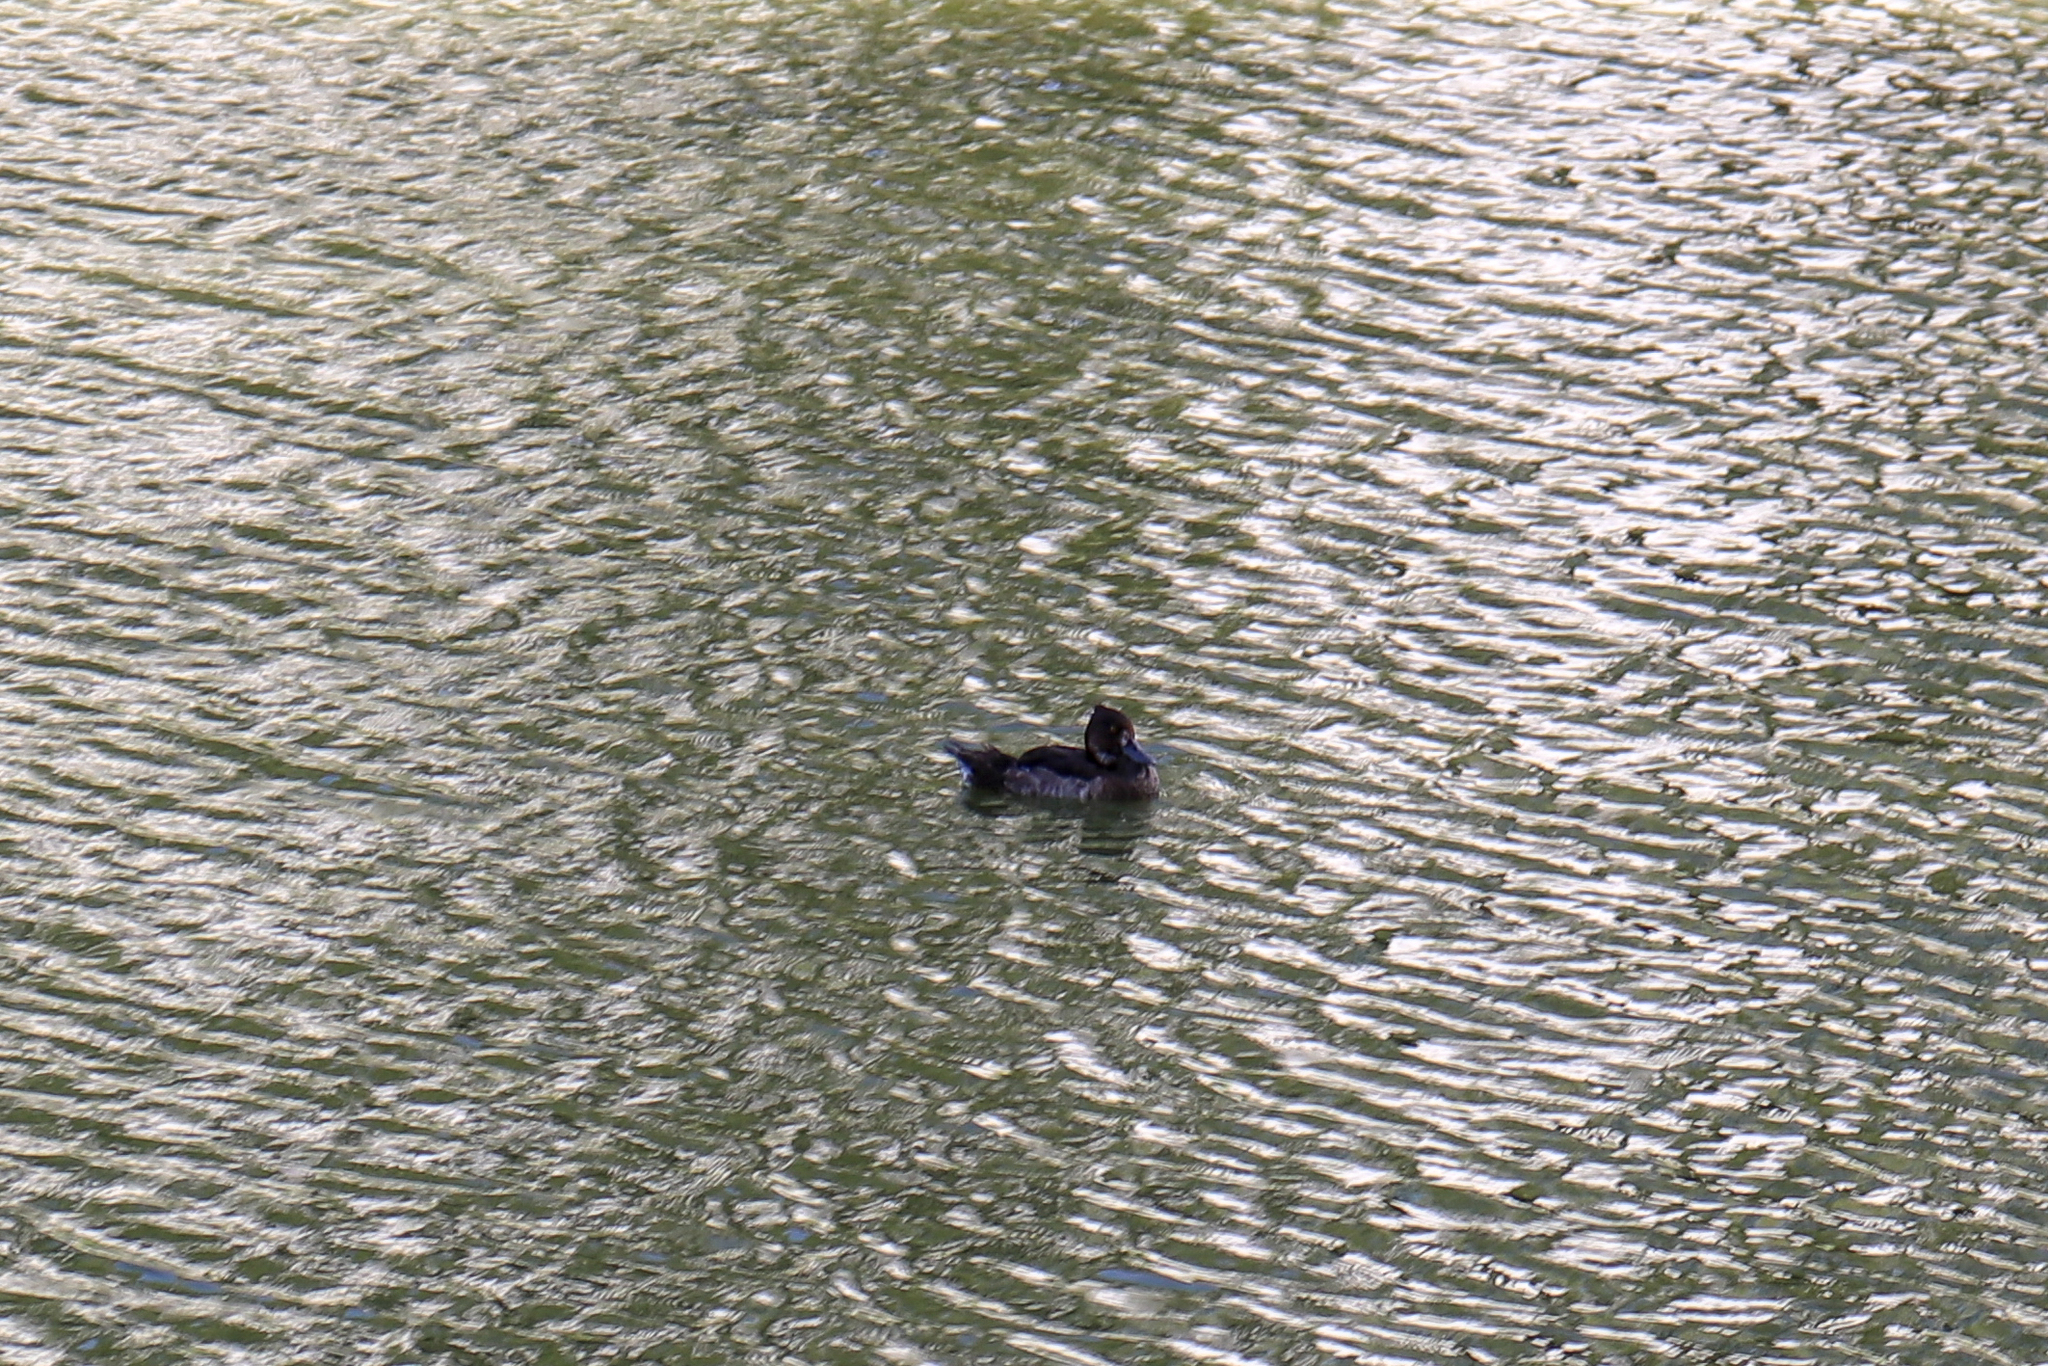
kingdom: Animalia
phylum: Chordata
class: Aves
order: Anseriformes
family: Anatidae
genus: Aythya
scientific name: Aythya fuligula
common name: Tufted duck
